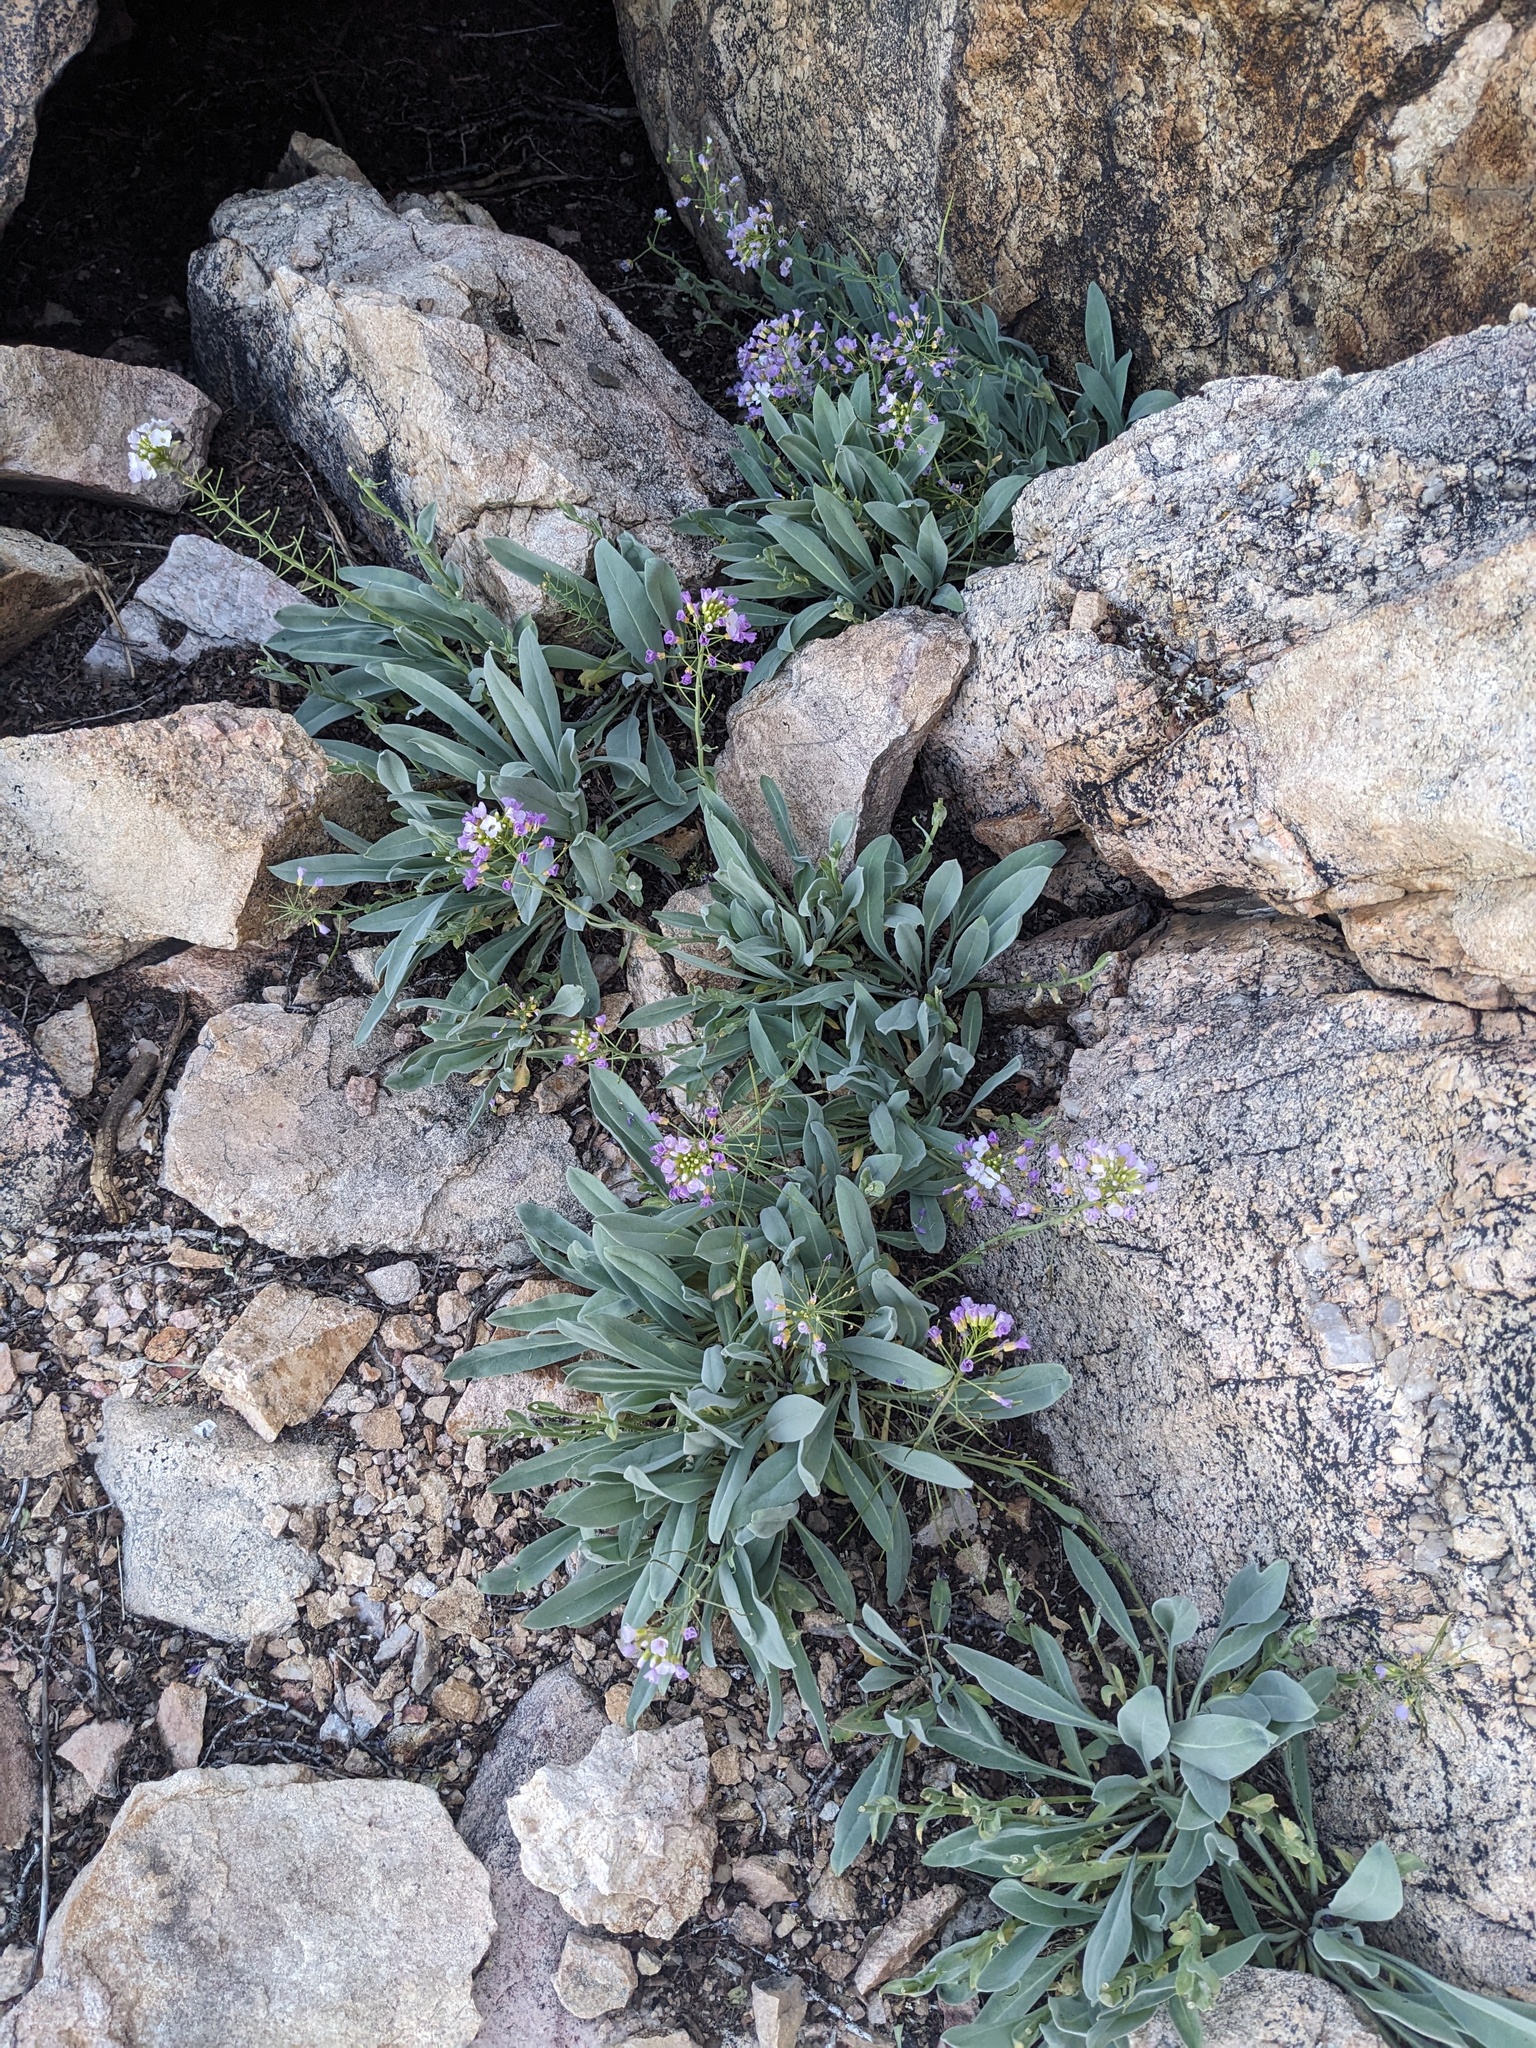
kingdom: Plantae
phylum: Tracheophyta
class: Magnoliopsida
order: Brassicales
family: Brassicaceae
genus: Phoenicaulis
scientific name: Phoenicaulis cheiranthoides
